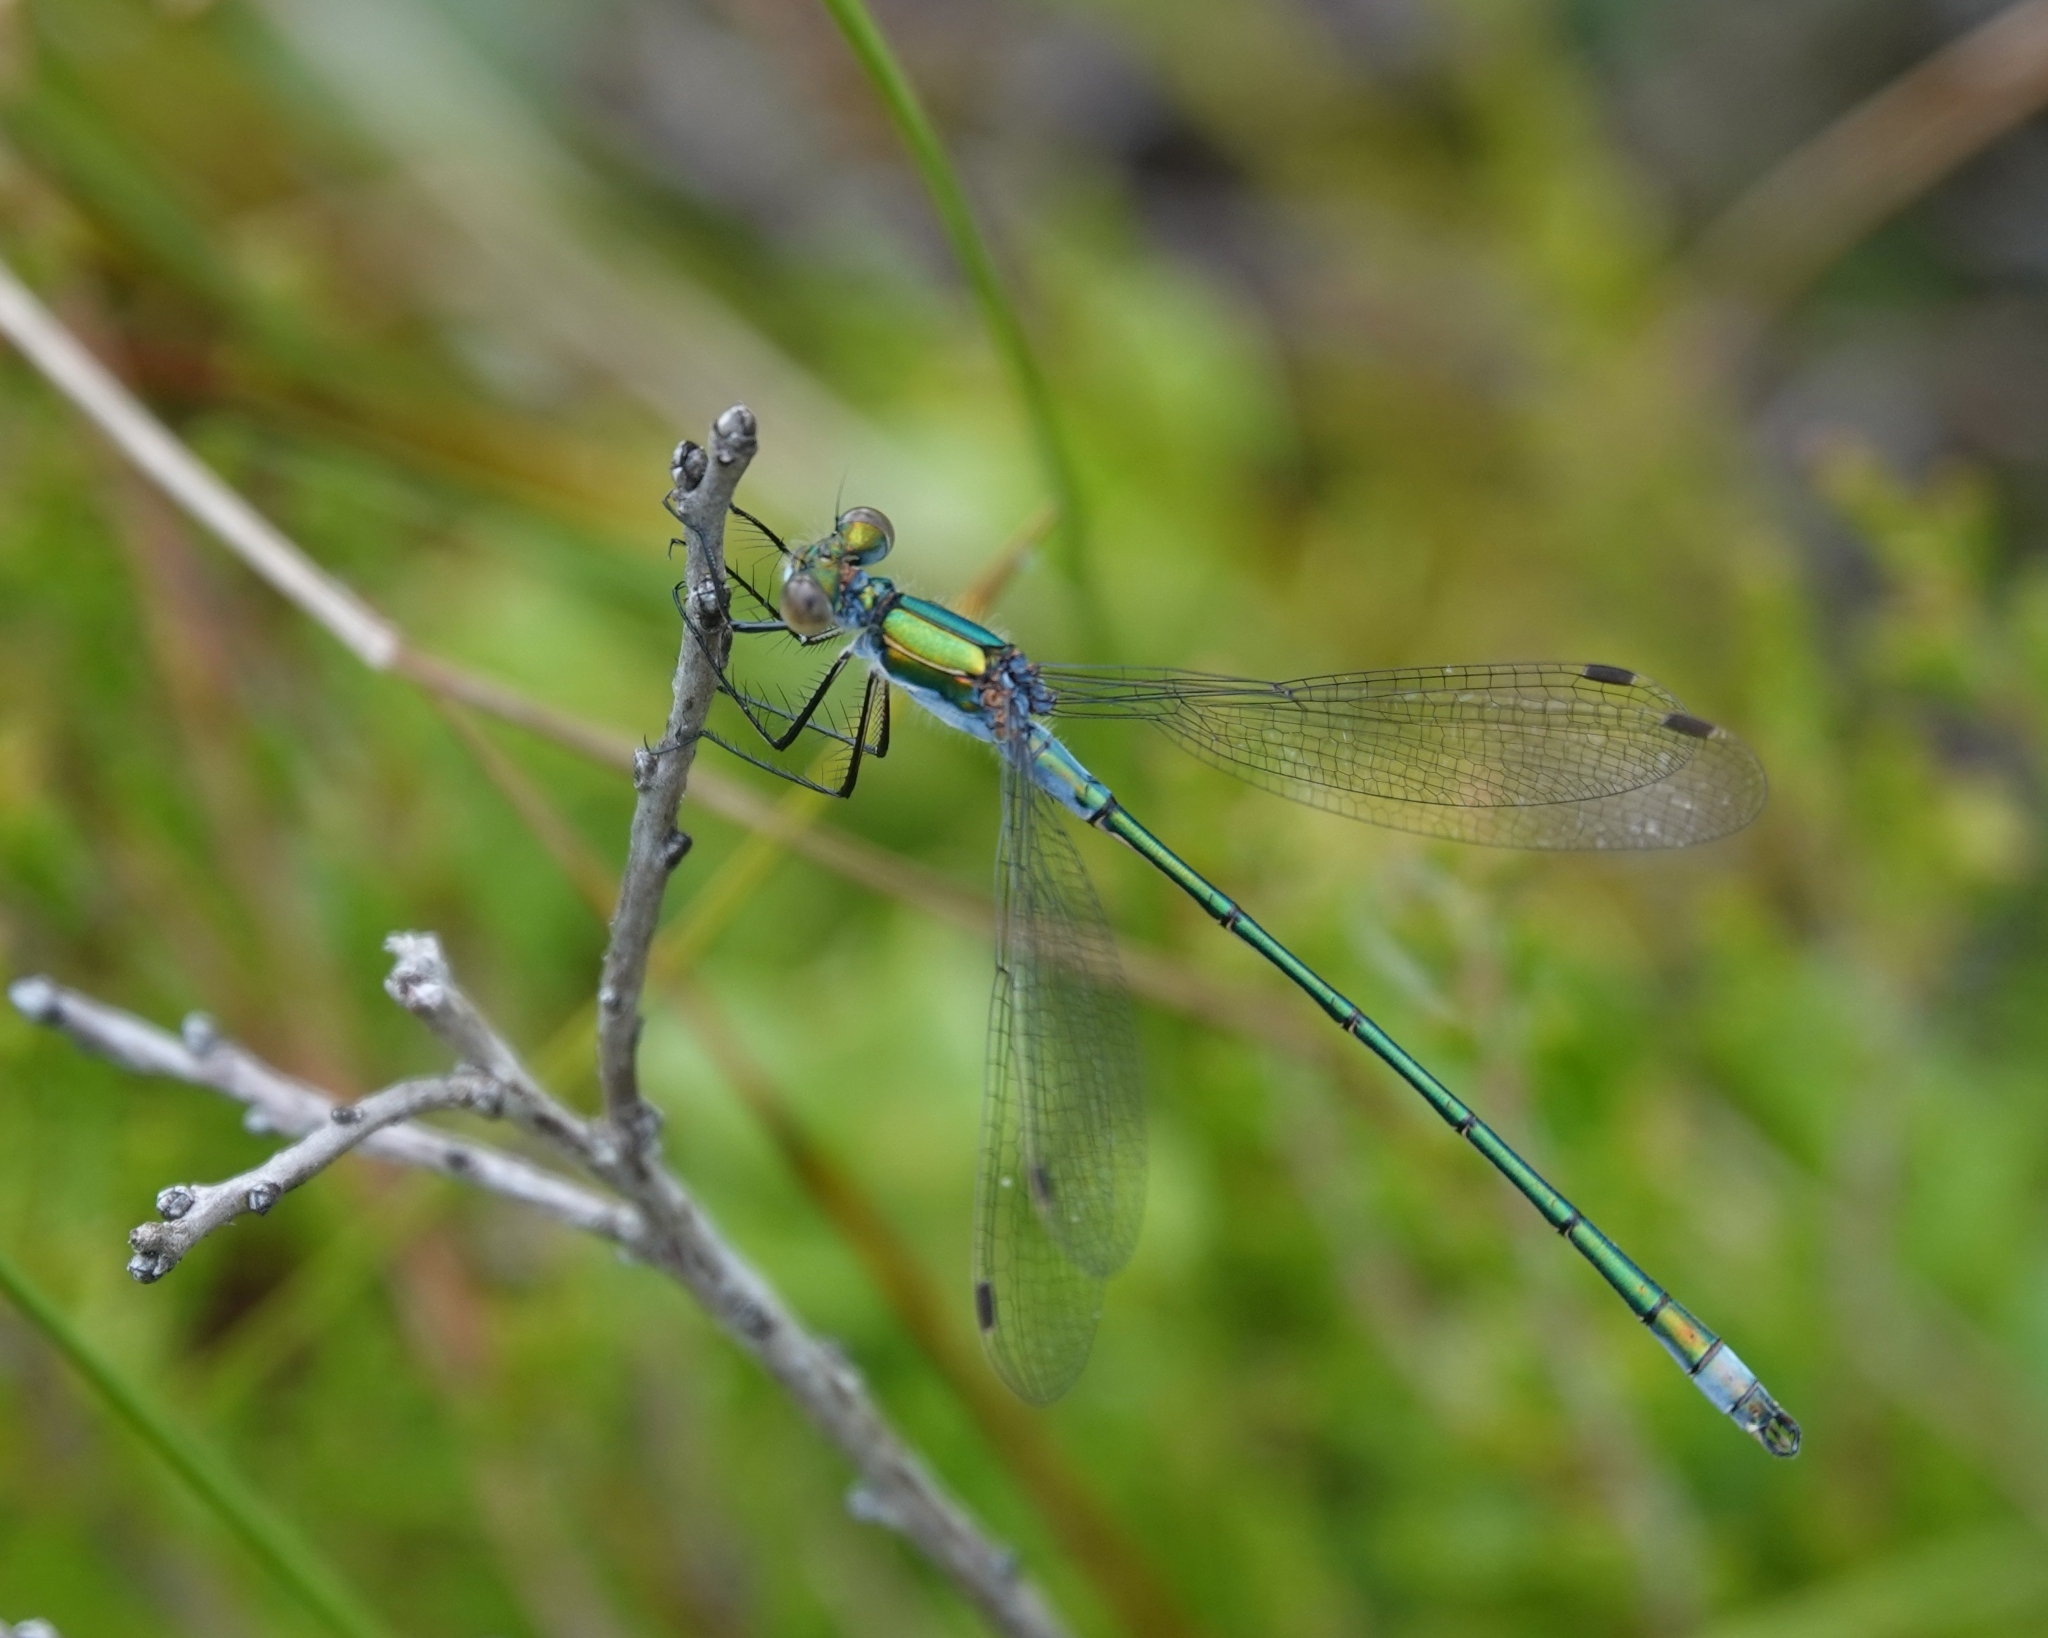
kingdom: Animalia
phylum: Arthropoda
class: Insecta
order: Odonata
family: Lestidae
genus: Lestes
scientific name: Lestes sponsa
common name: Common spreadwing
